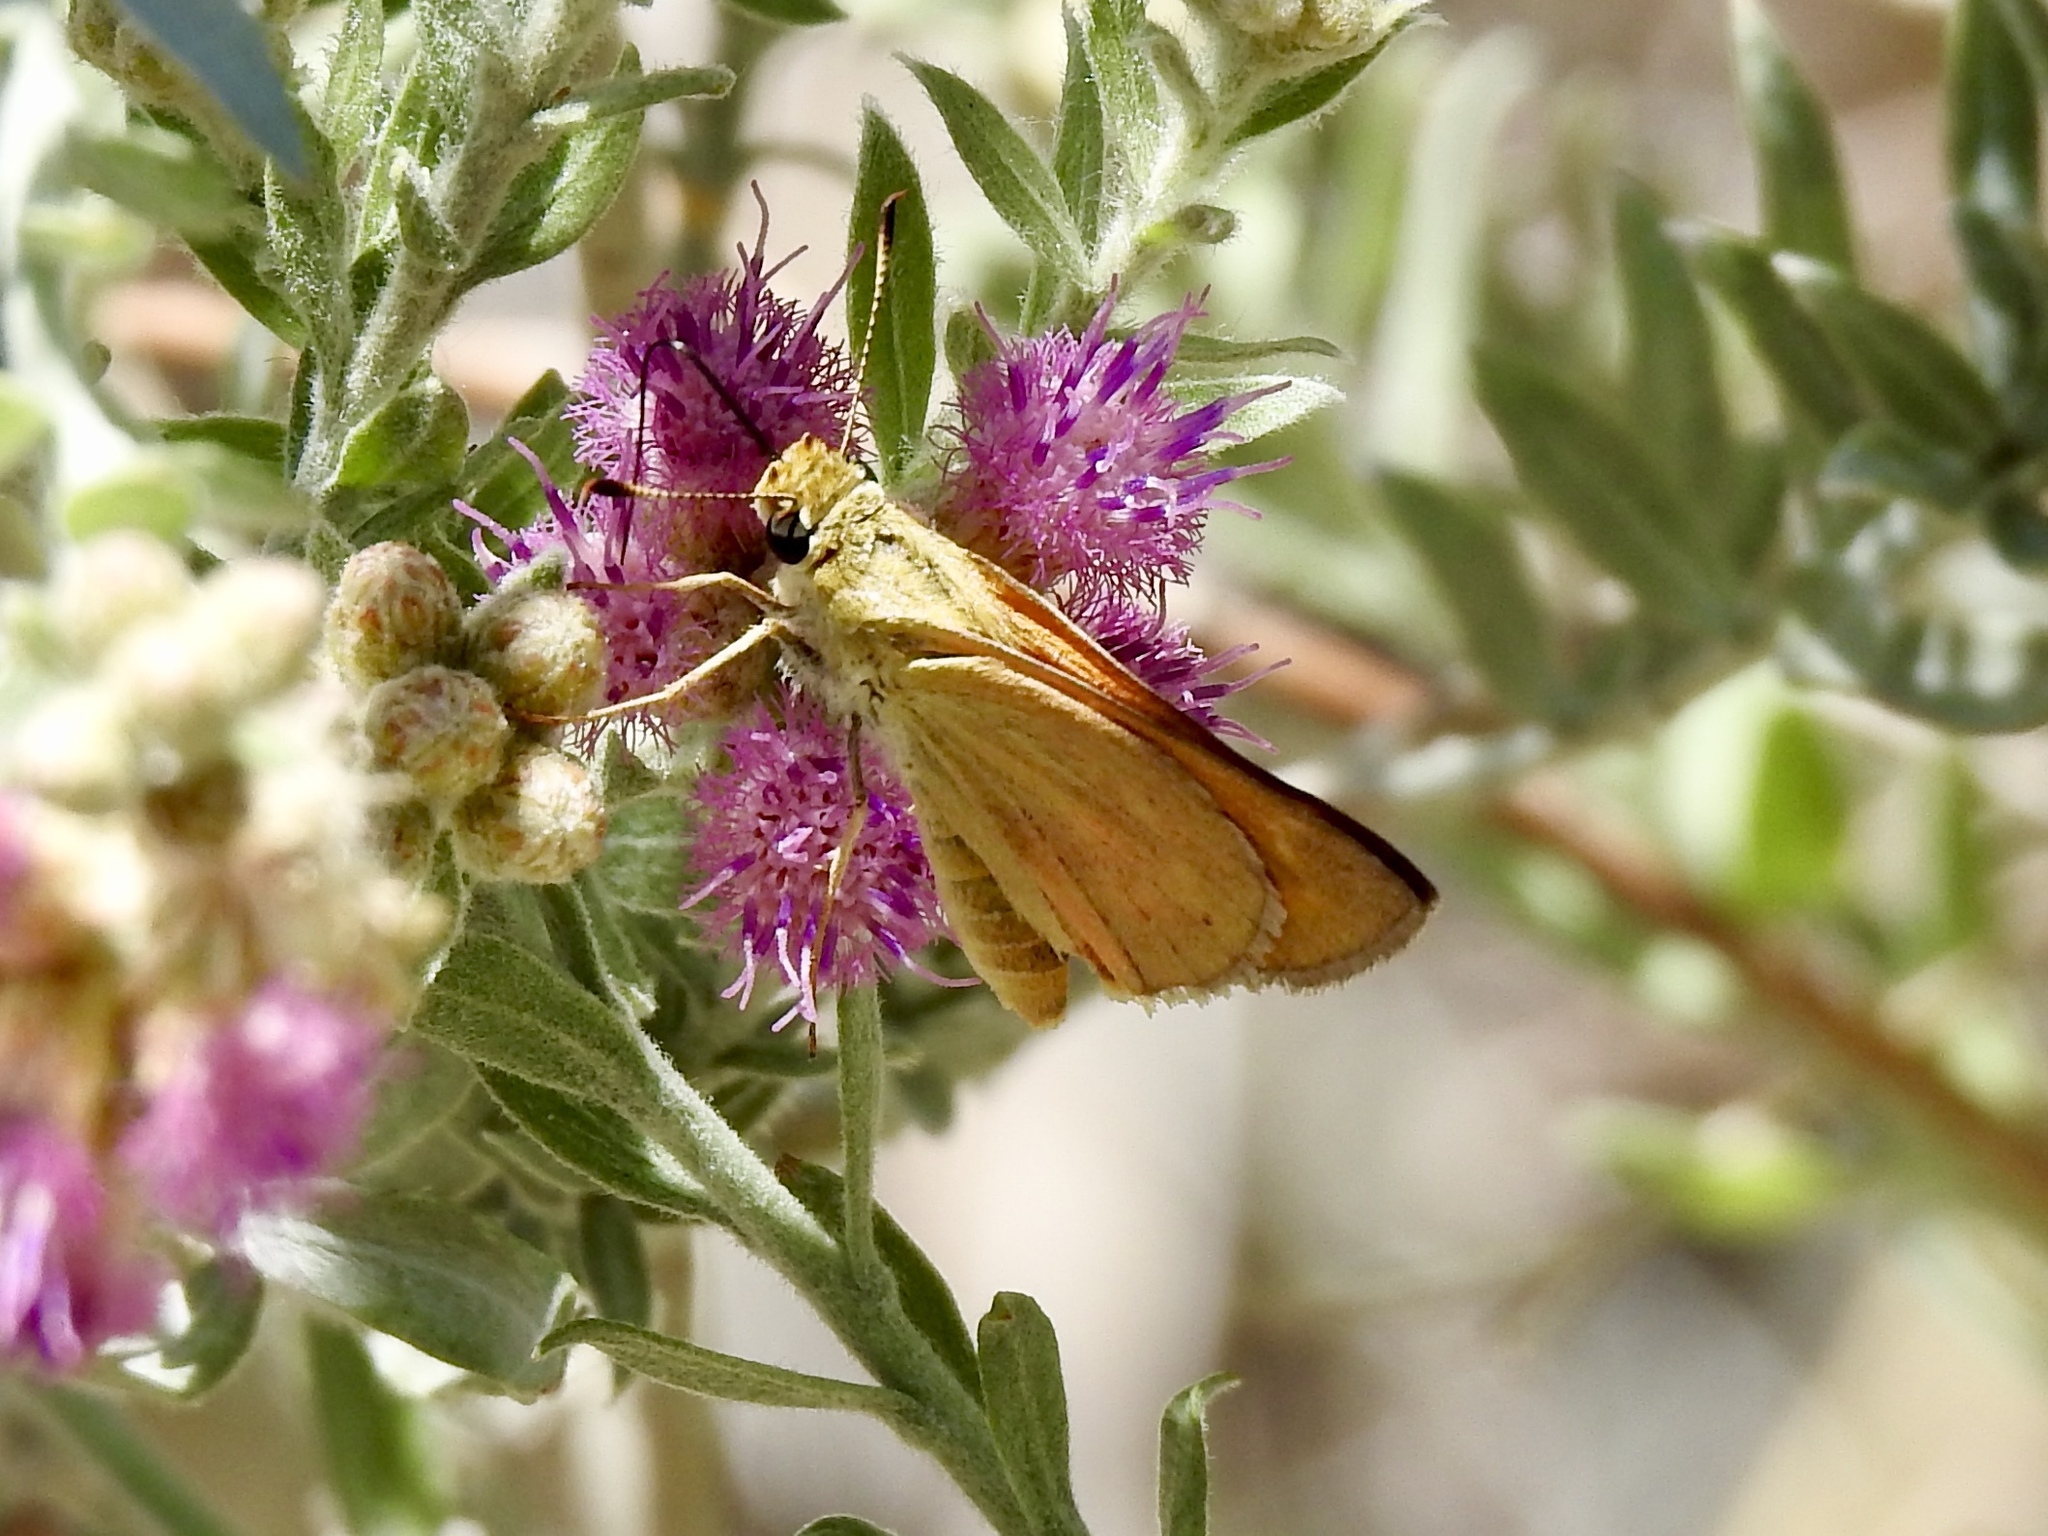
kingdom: Animalia
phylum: Arthropoda
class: Insecta
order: Lepidoptera
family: Hesperiidae
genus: Ochlodes
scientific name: Ochlodes sylvanoides
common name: Woodland skipper
